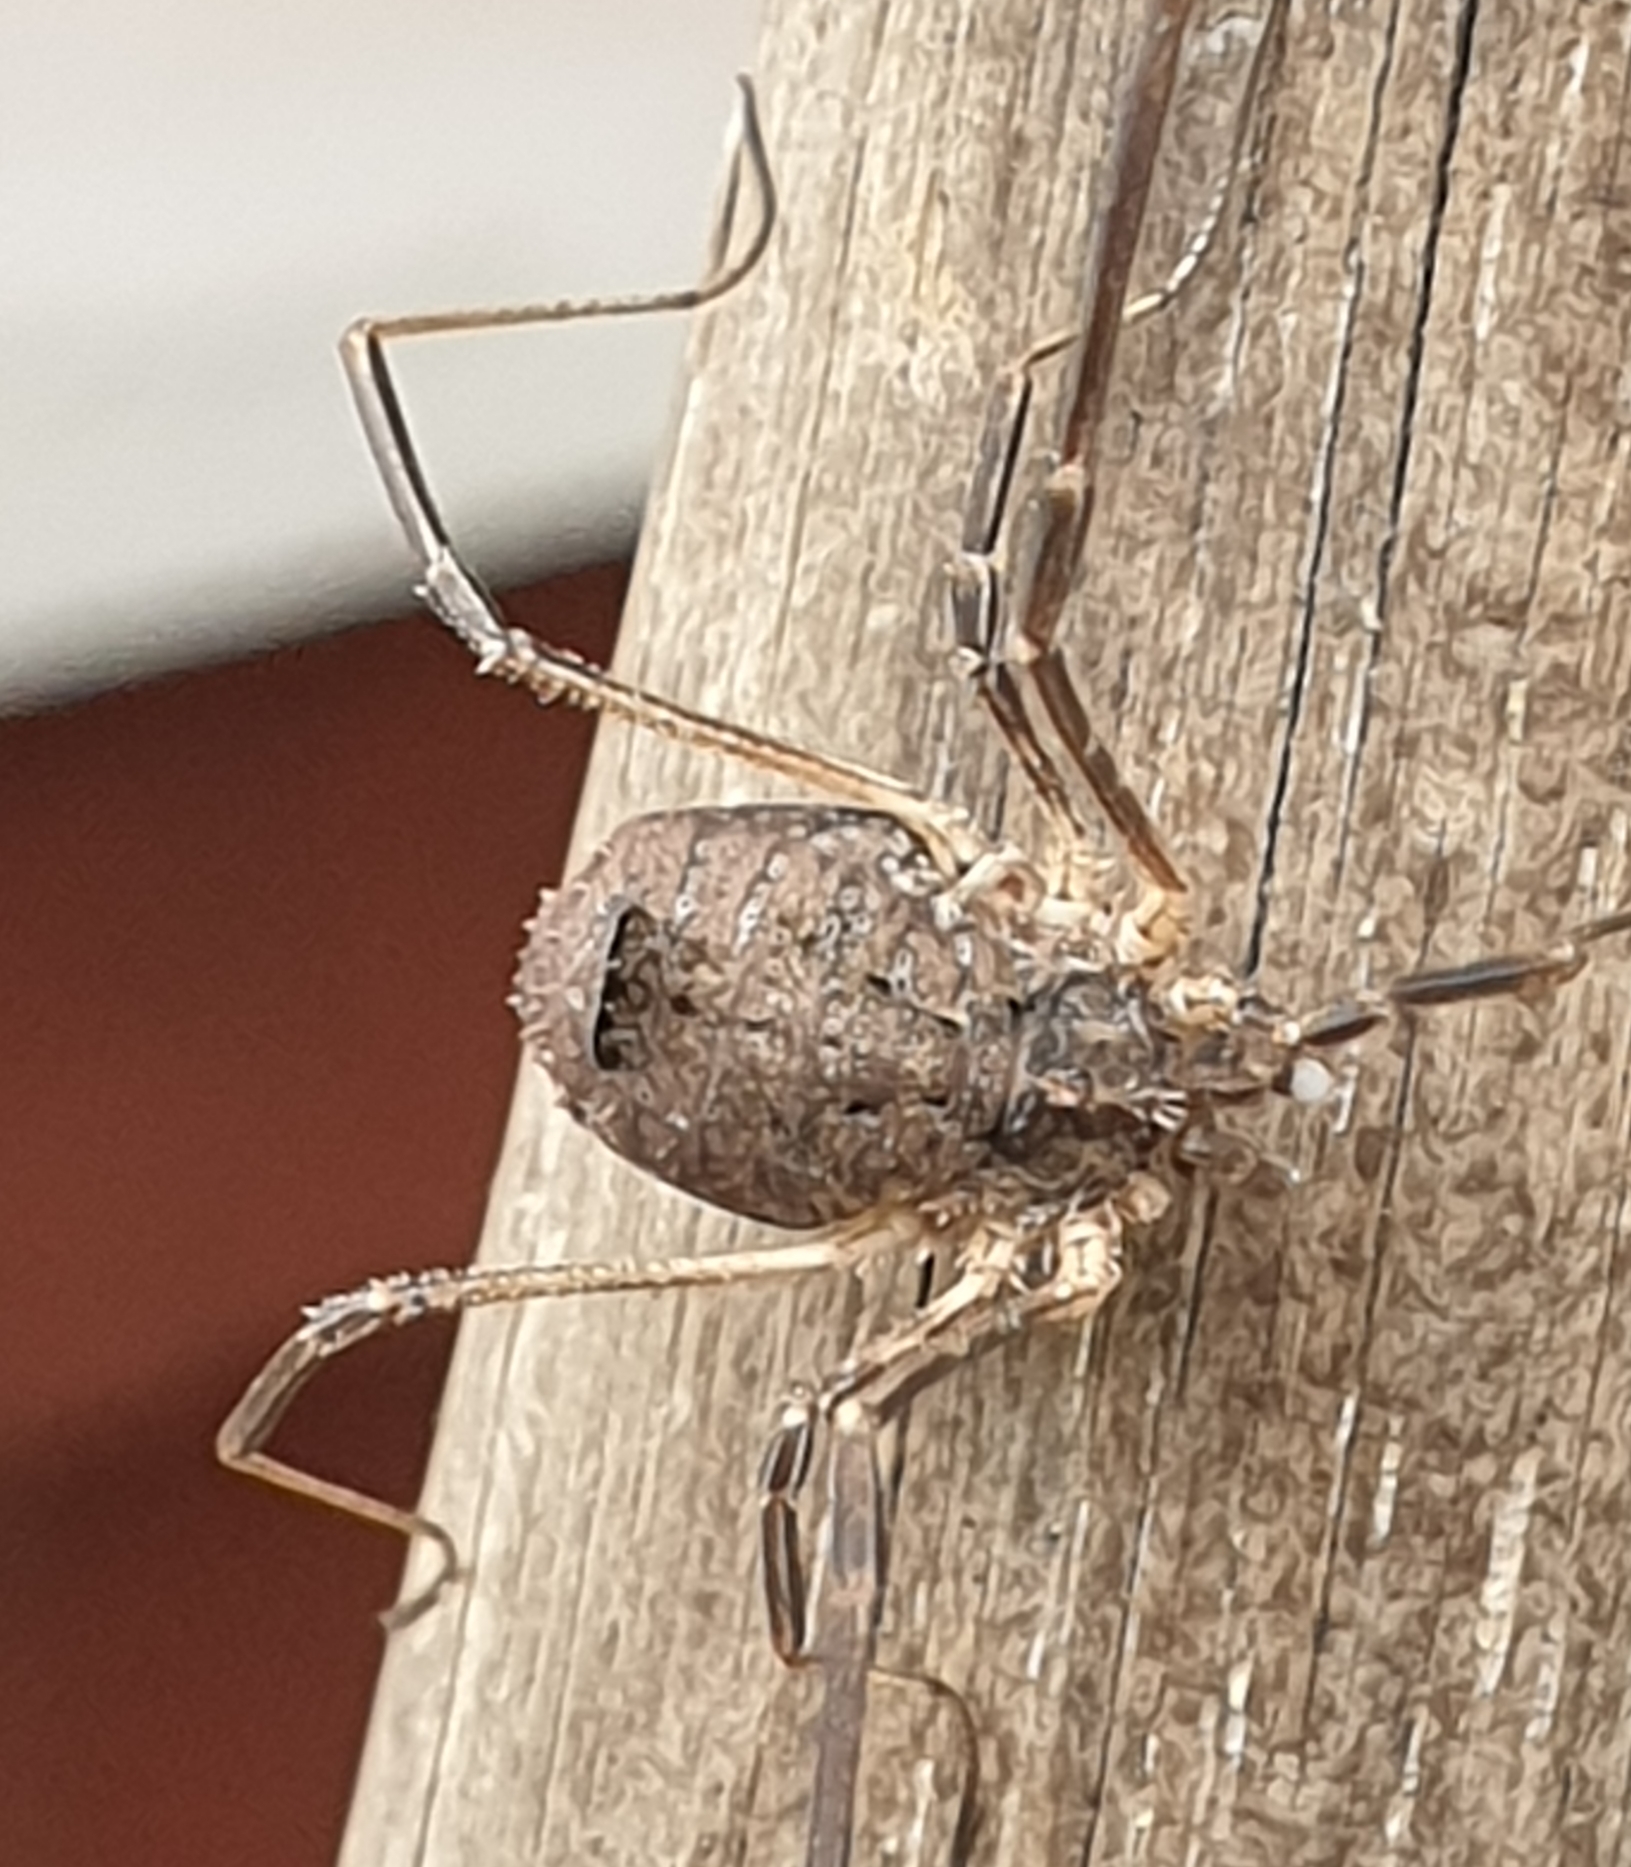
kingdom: Animalia
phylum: Arthropoda
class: Arachnida
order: Opiliones
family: Phalangiidae
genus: Lacinius
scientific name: Lacinius horridus
